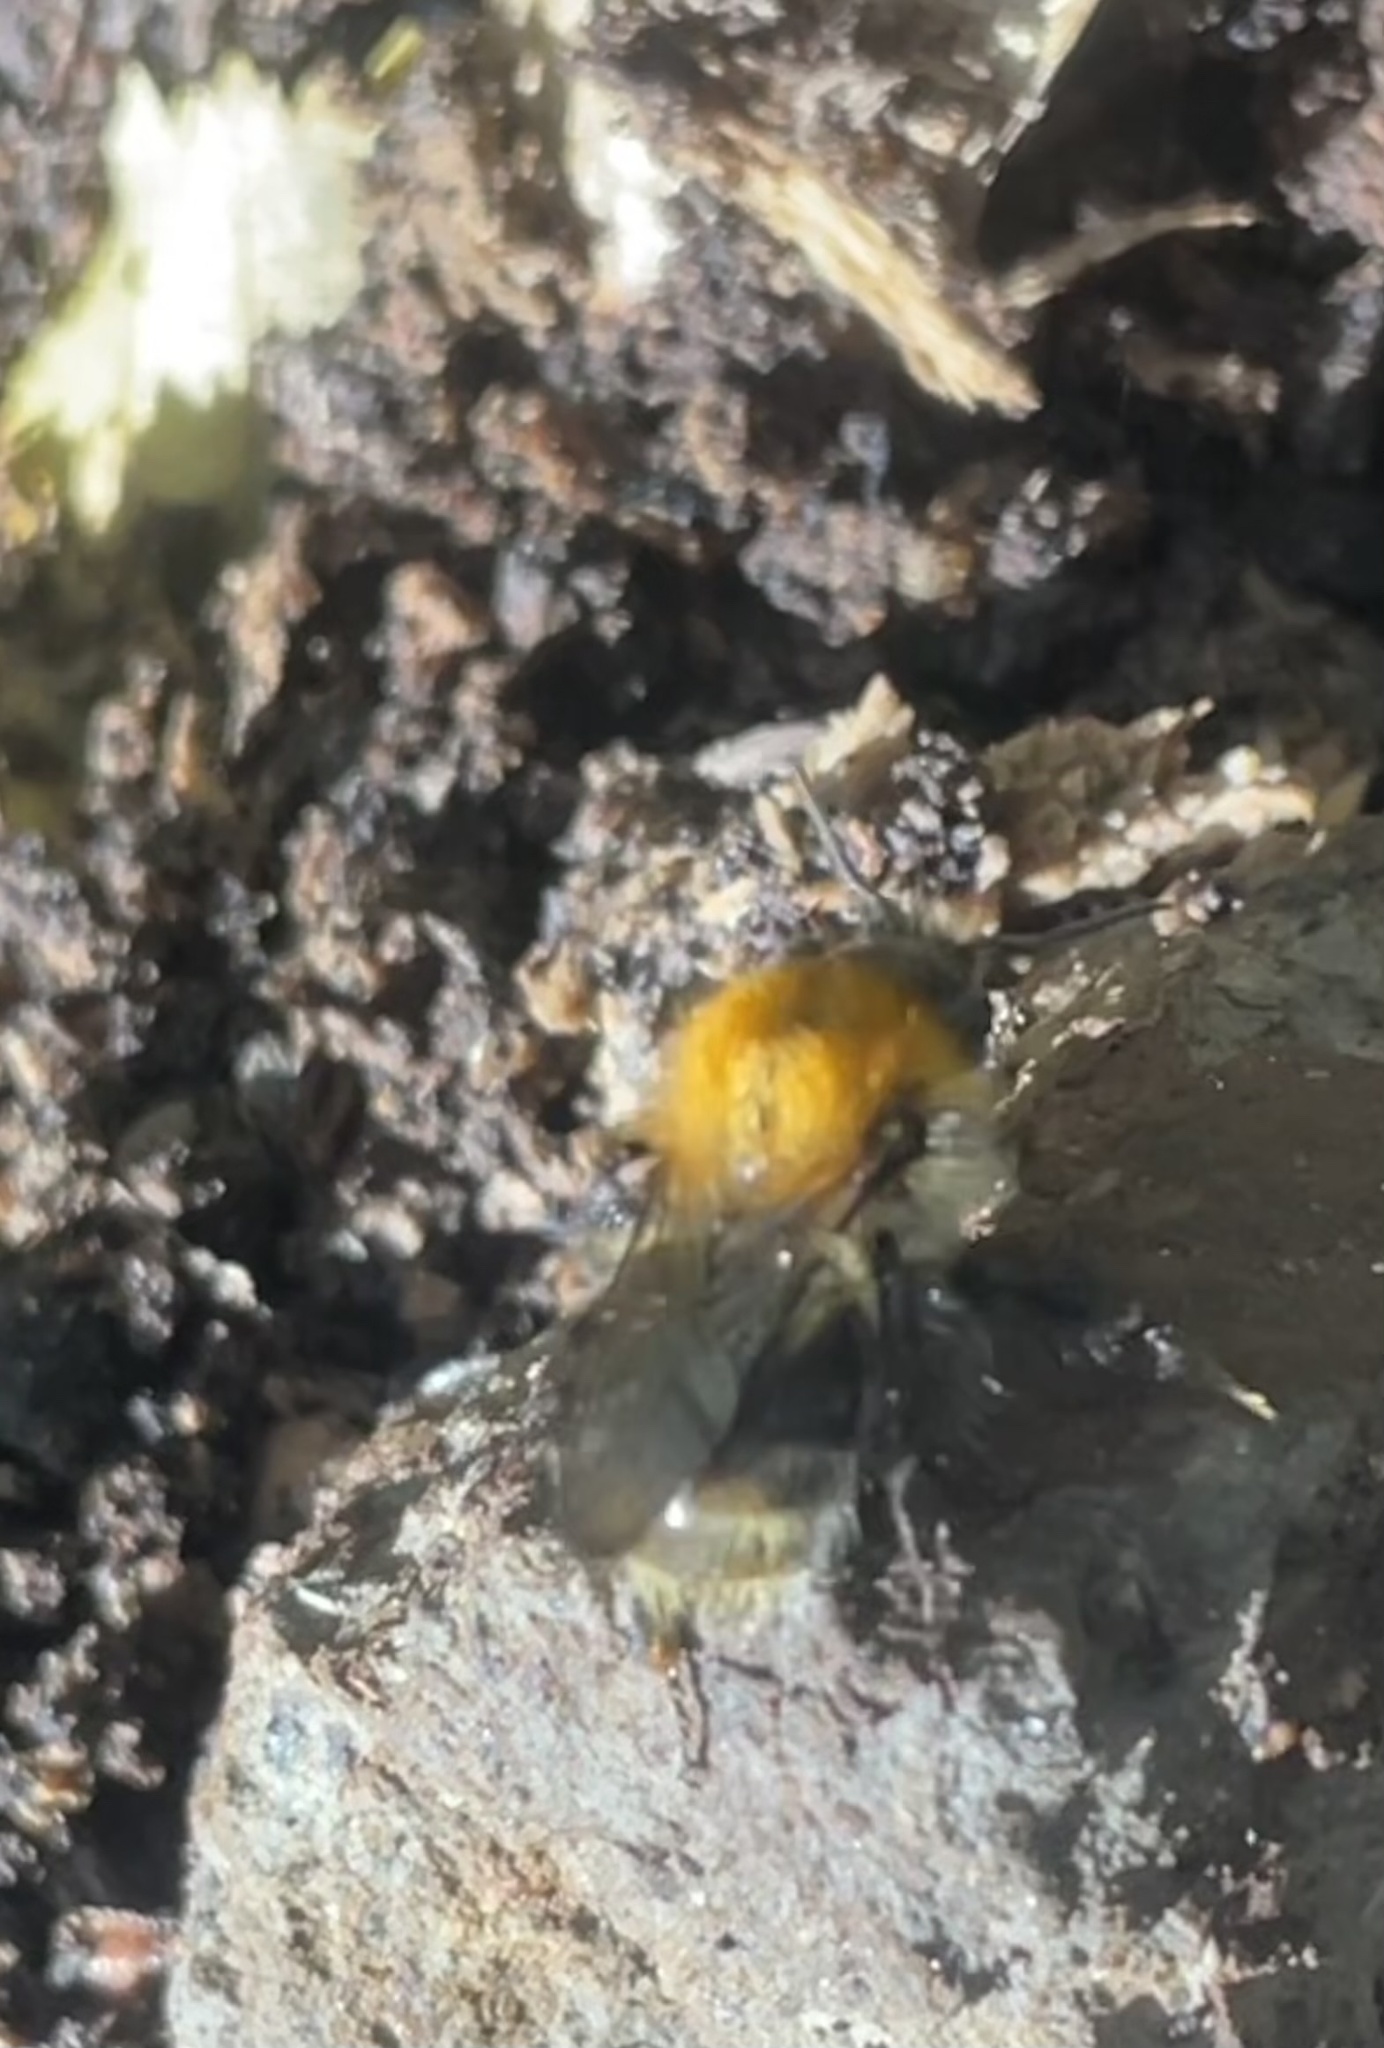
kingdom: Animalia
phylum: Arthropoda
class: Insecta
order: Hymenoptera
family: Apidae
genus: Bombus
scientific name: Bombus pascuorum
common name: Common carder bee
